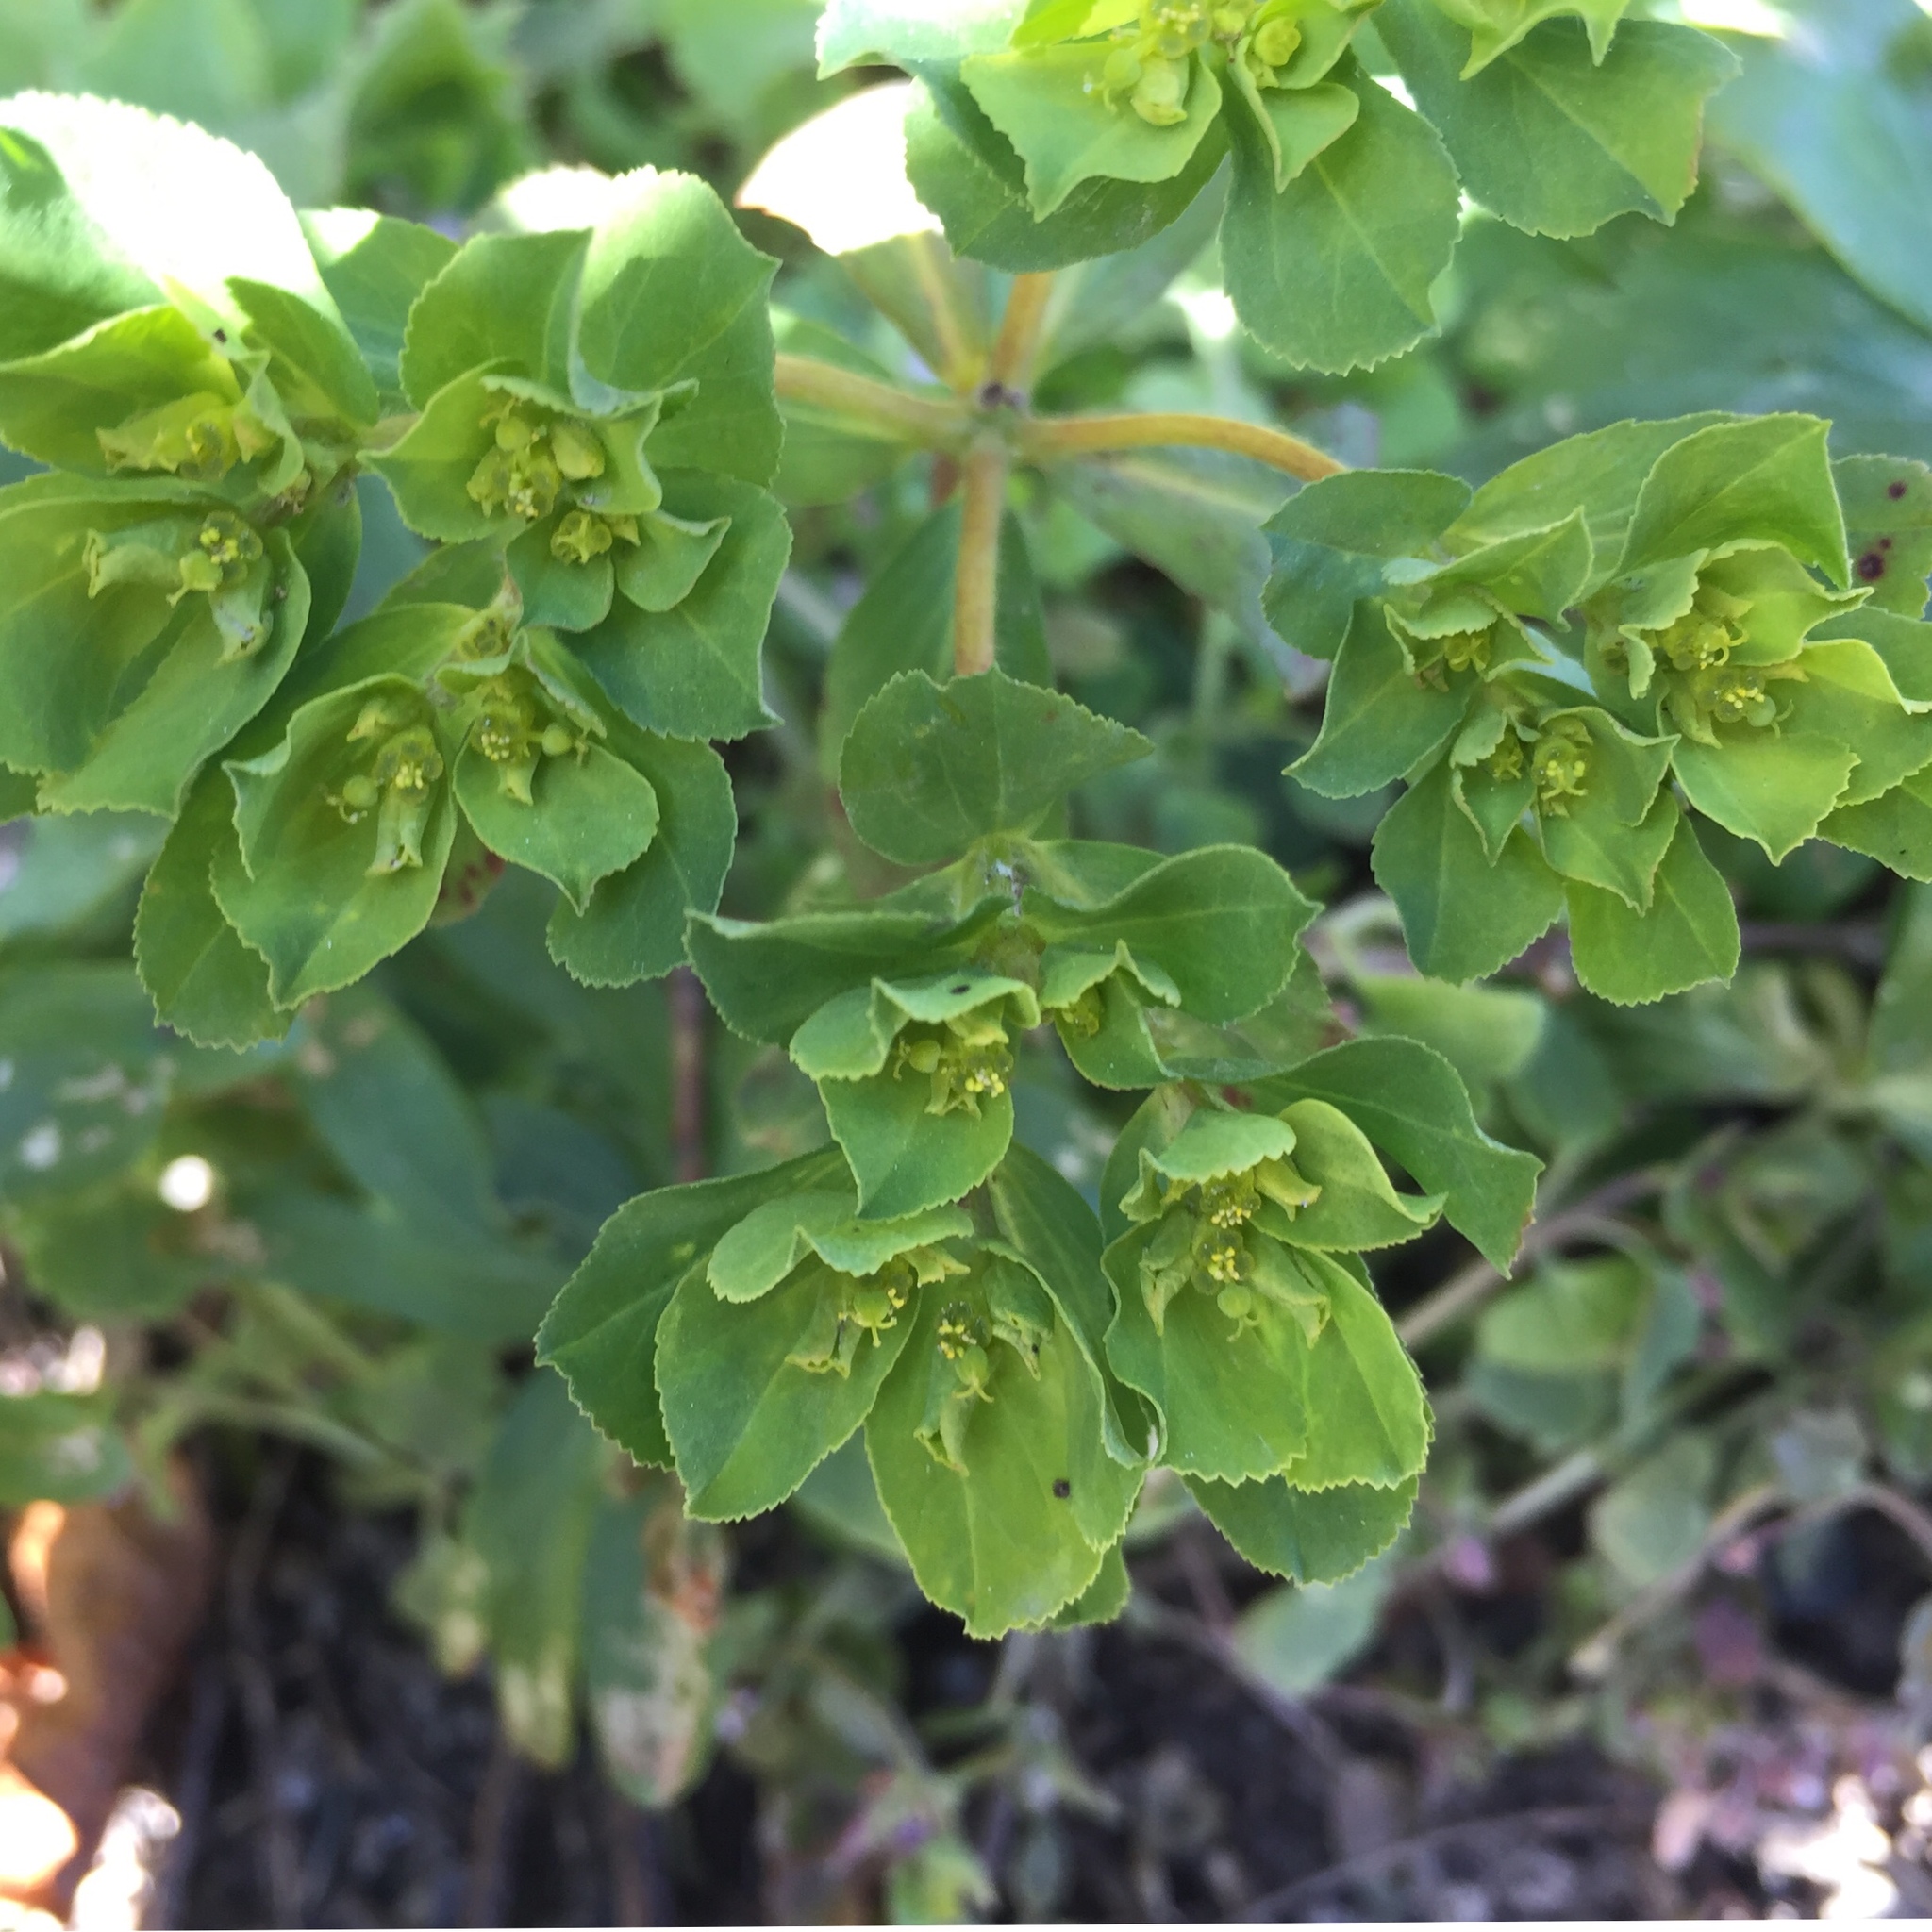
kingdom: Plantae
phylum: Tracheophyta
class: Magnoliopsida
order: Malpighiales
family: Euphorbiaceae
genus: Euphorbia
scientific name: Euphorbia helioscopia
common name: Sun spurge
